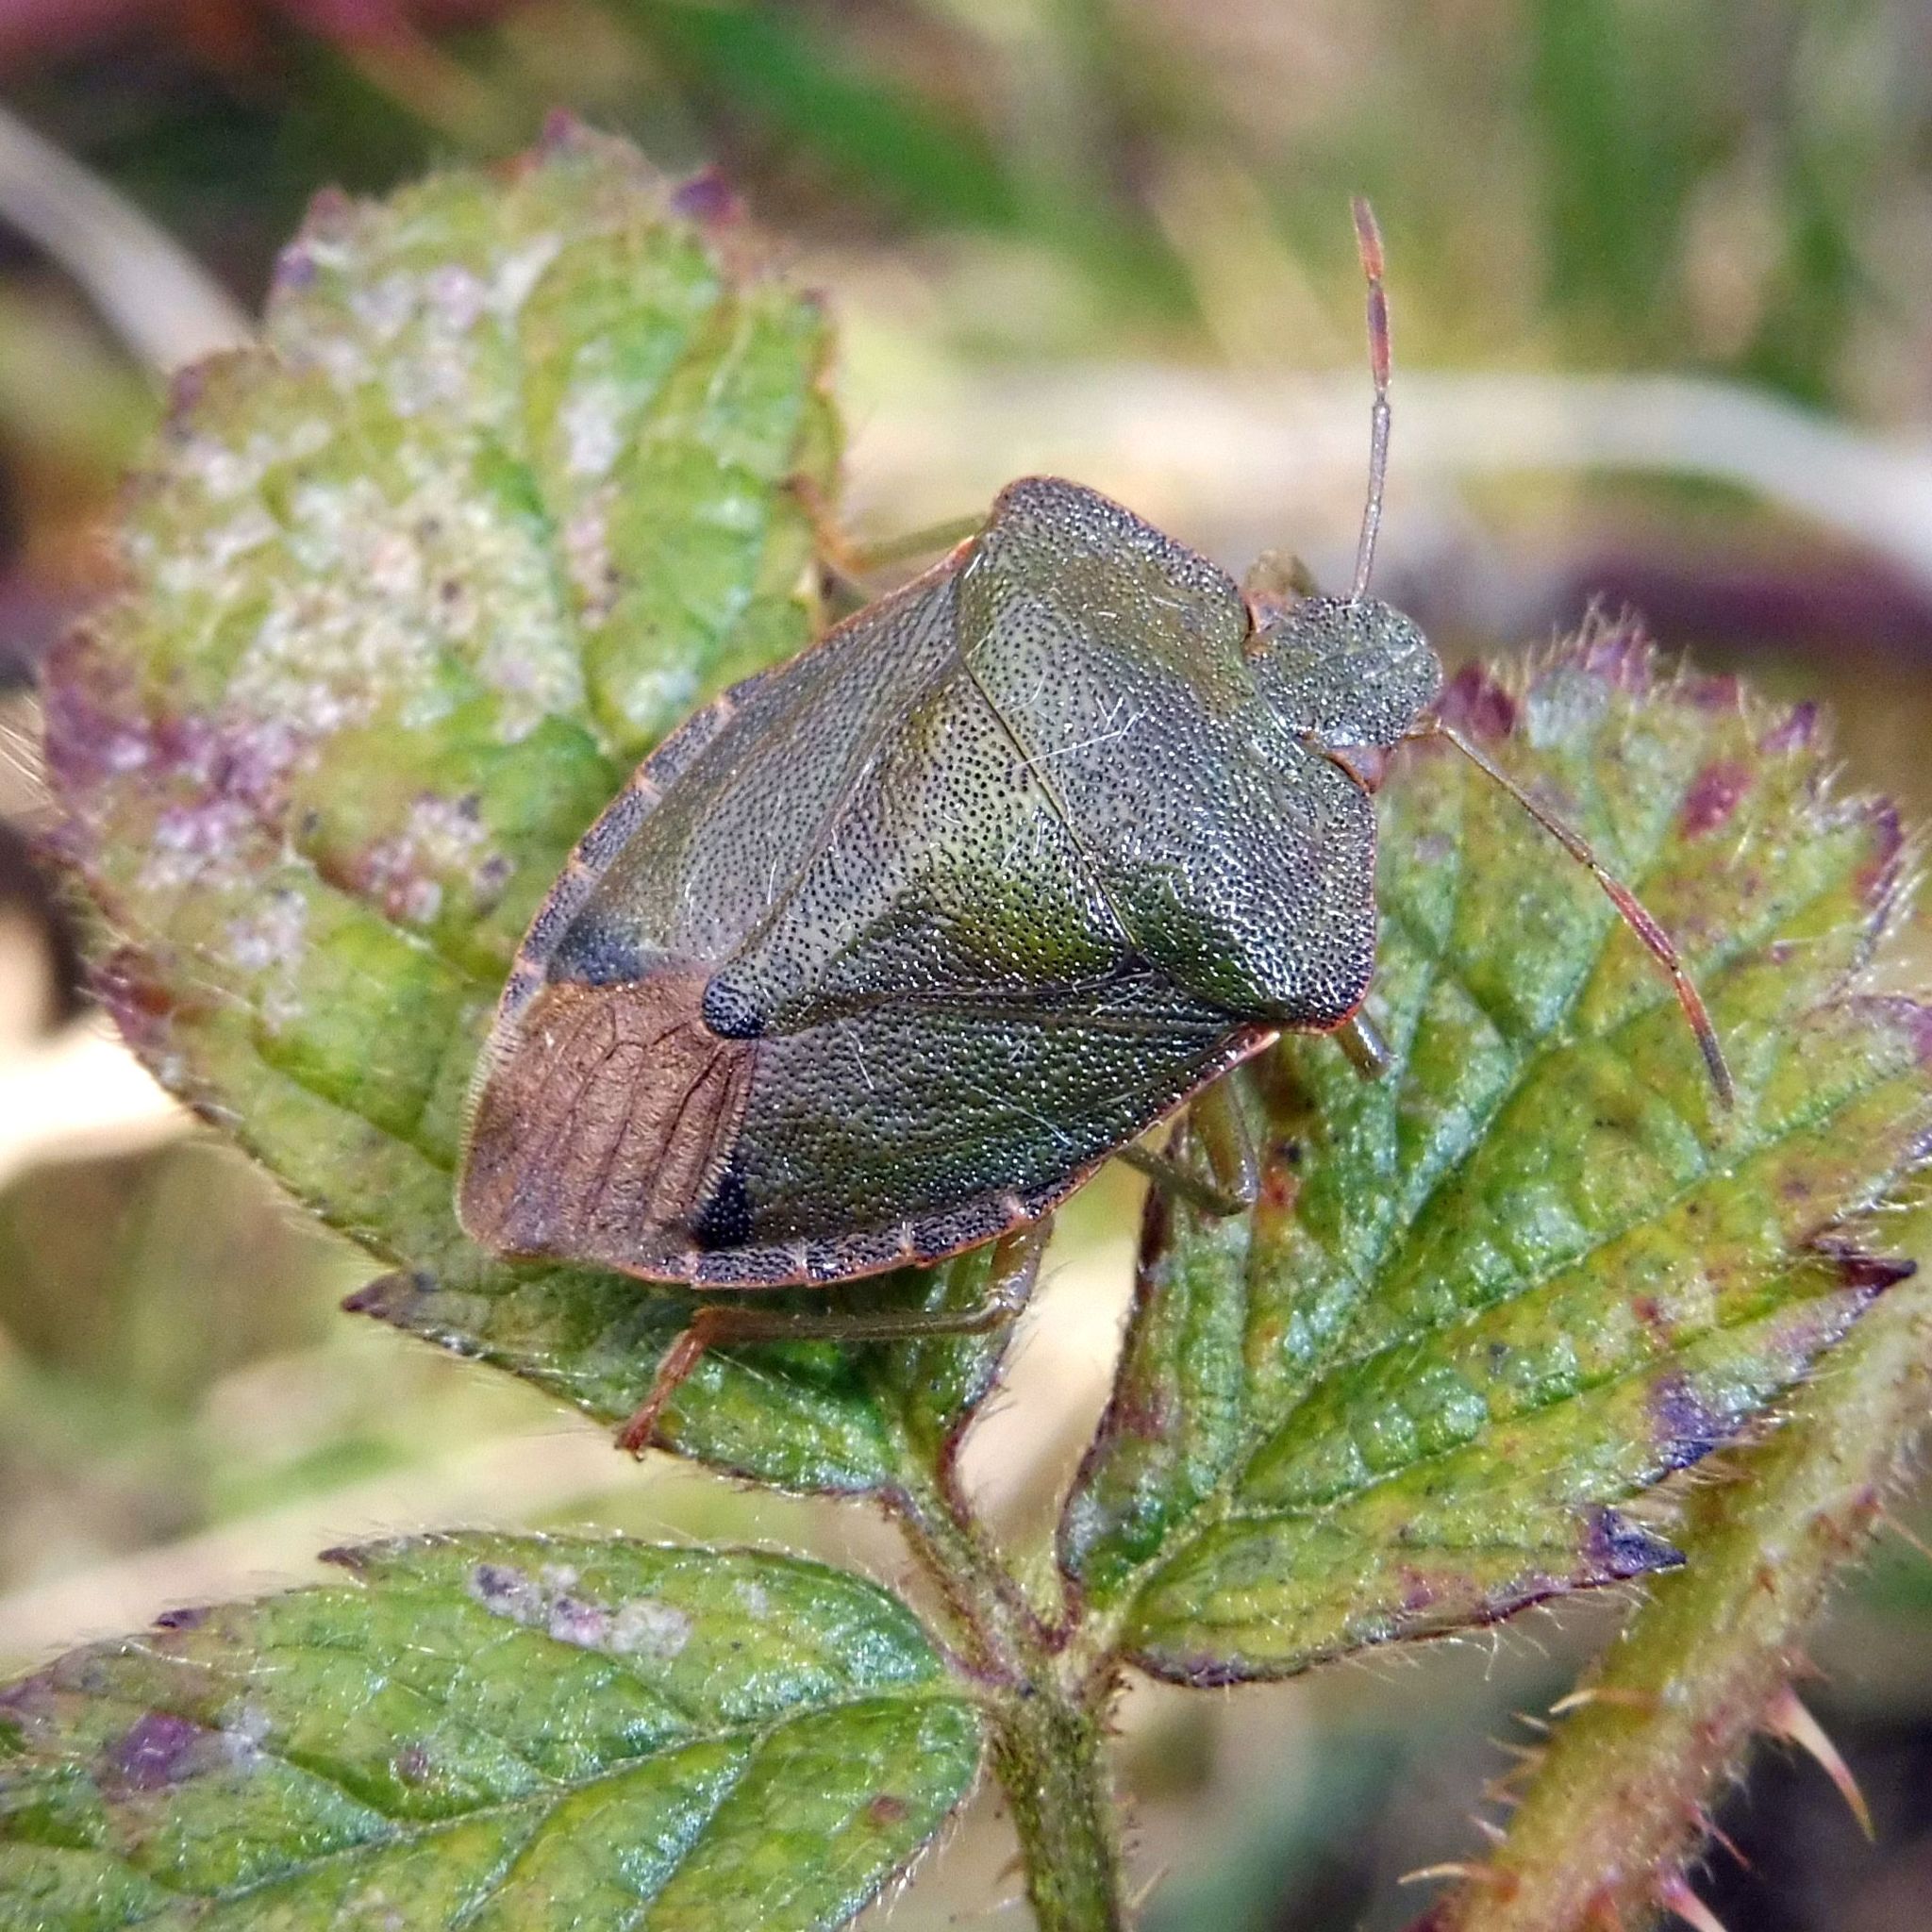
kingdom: Animalia
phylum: Arthropoda
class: Insecta
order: Hemiptera
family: Pentatomidae
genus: Palomena
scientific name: Palomena prasina
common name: Green shieldbug
